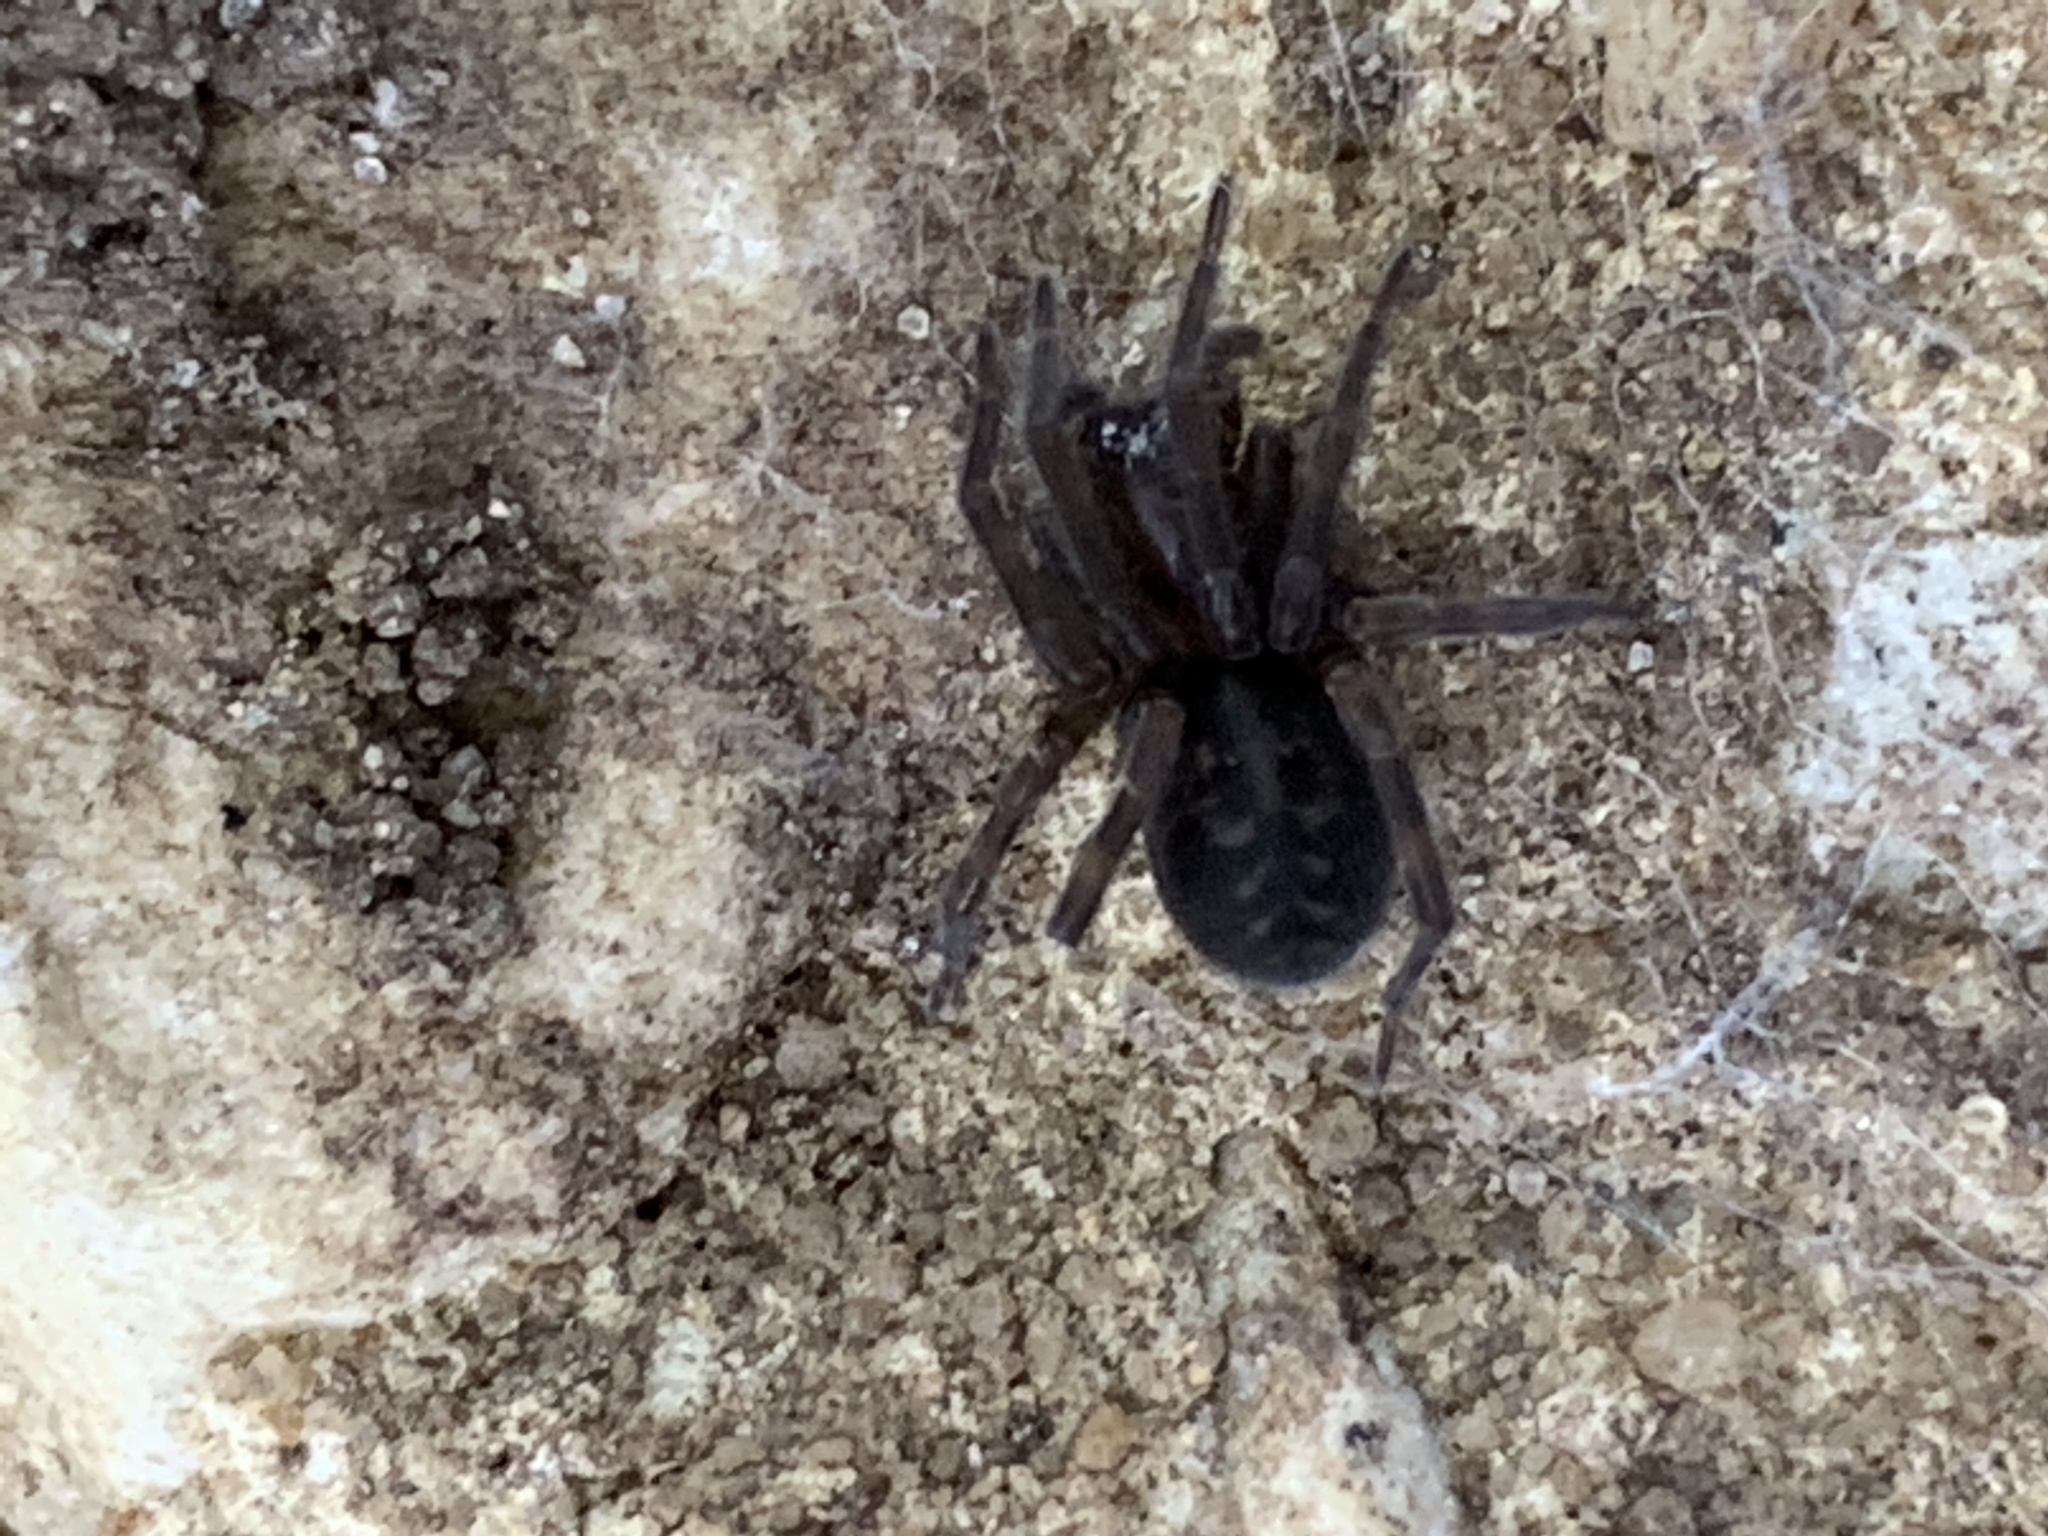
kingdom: Animalia
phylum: Arthropoda
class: Arachnida
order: Araneae
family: Amaurobiidae
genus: Amaurobius
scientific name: Amaurobius ferox
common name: Black laceweaver
